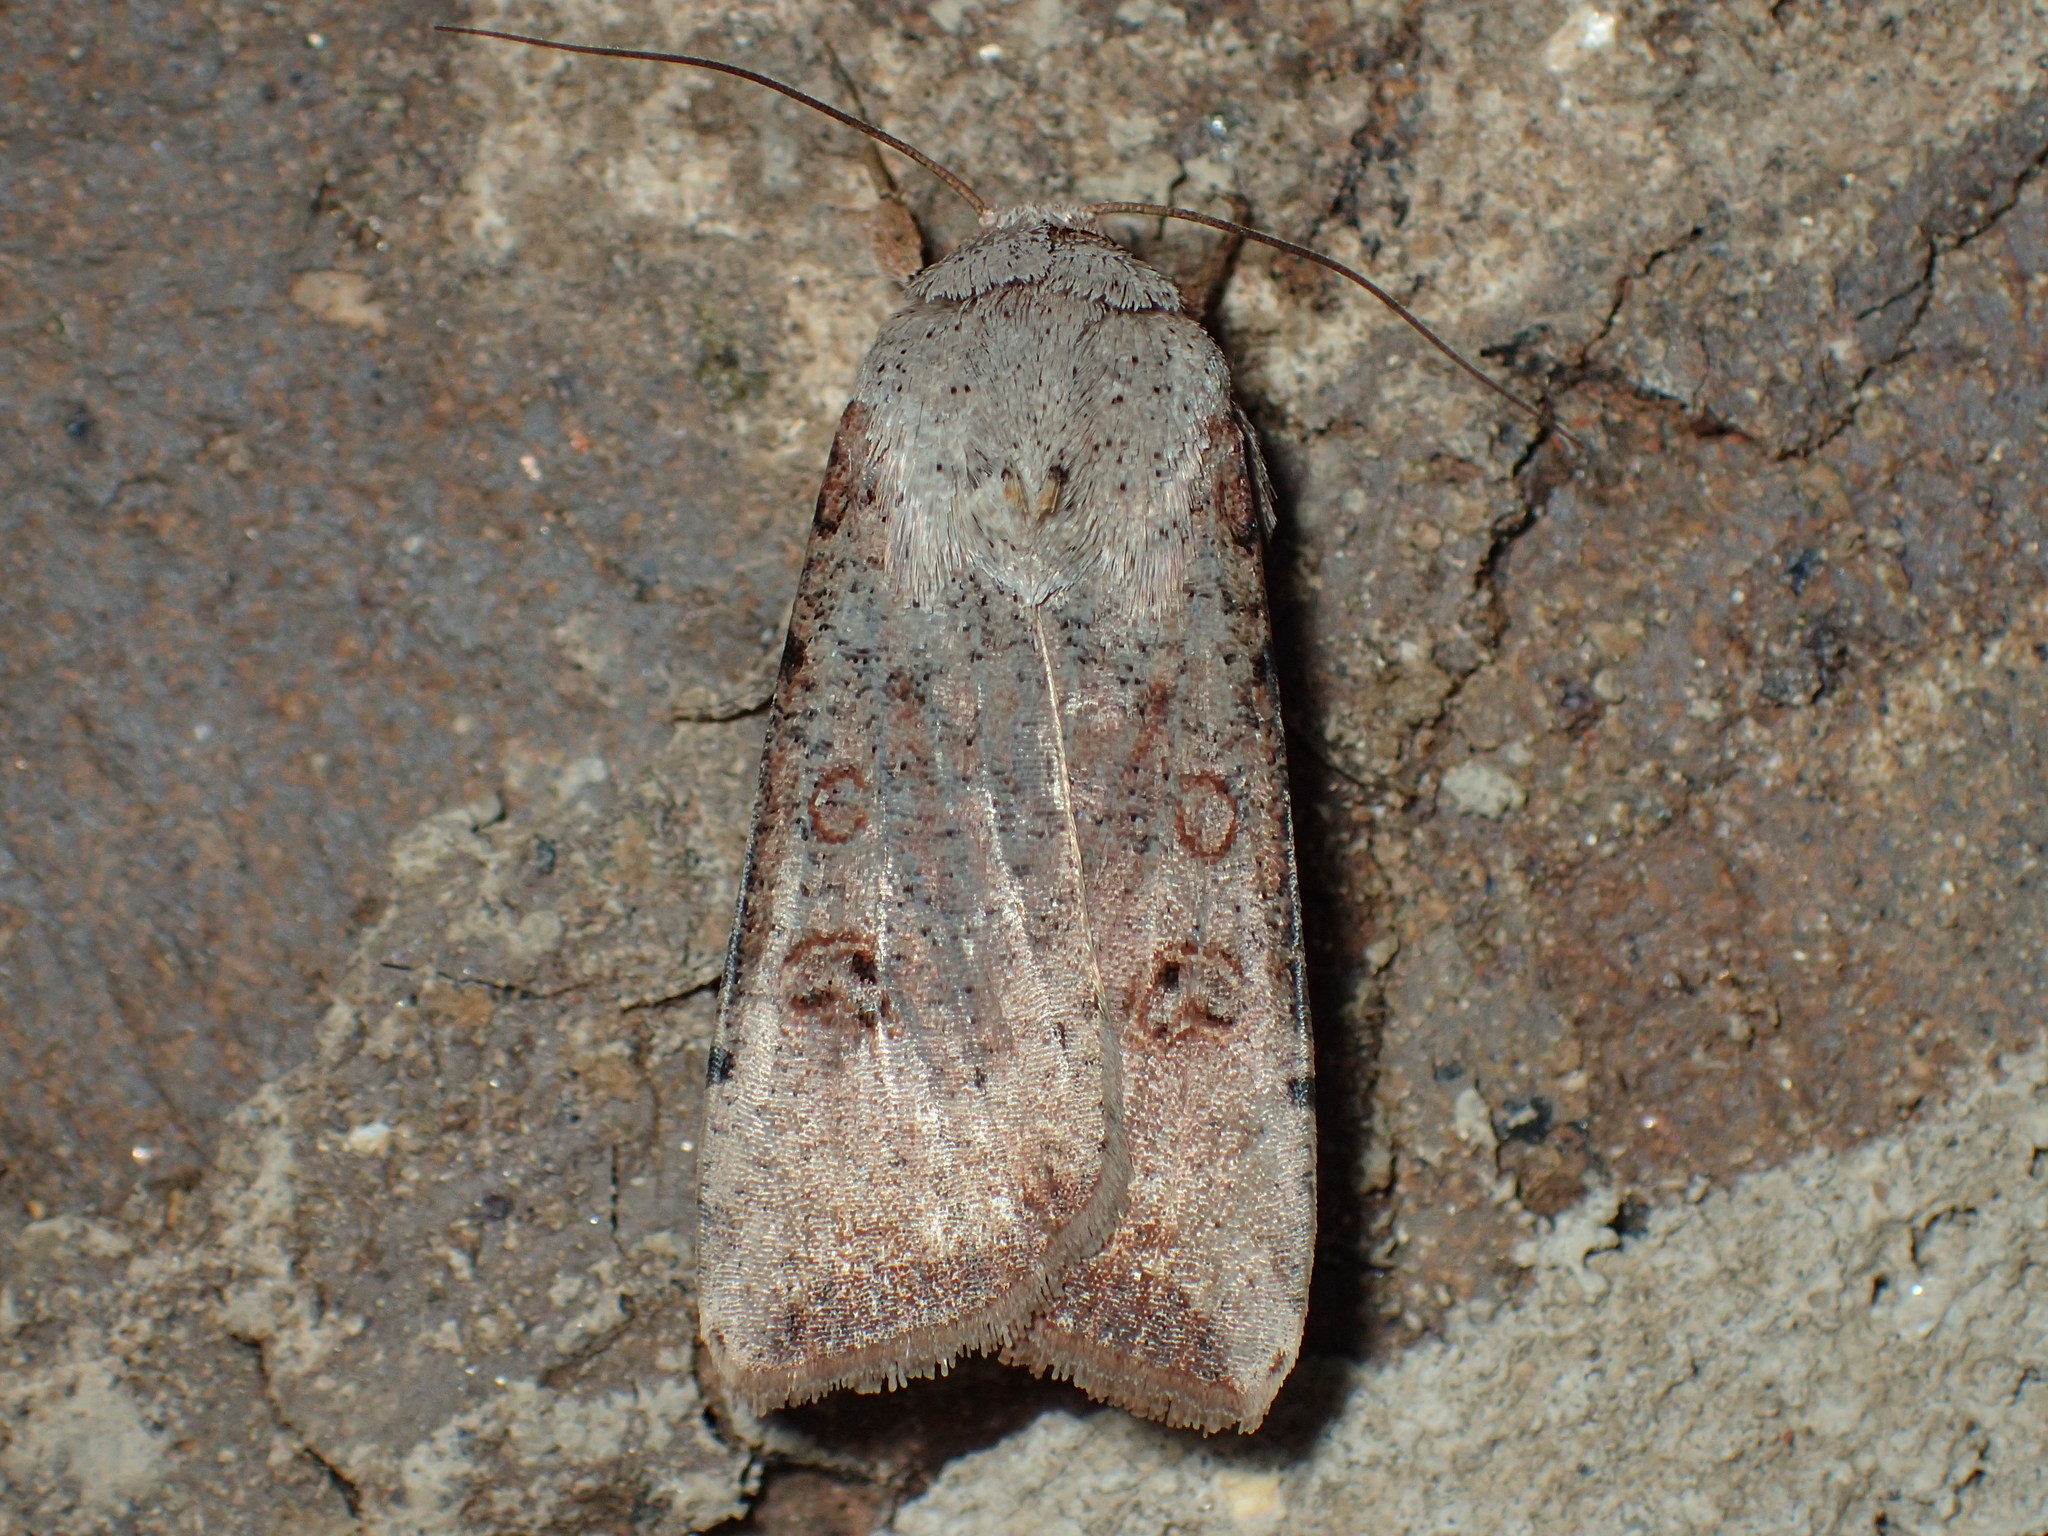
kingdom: Animalia
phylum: Arthropoda
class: Insecta
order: Lepidoptera
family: Noctuidae
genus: Anicla
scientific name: Anicla infecta
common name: Green cutworm
